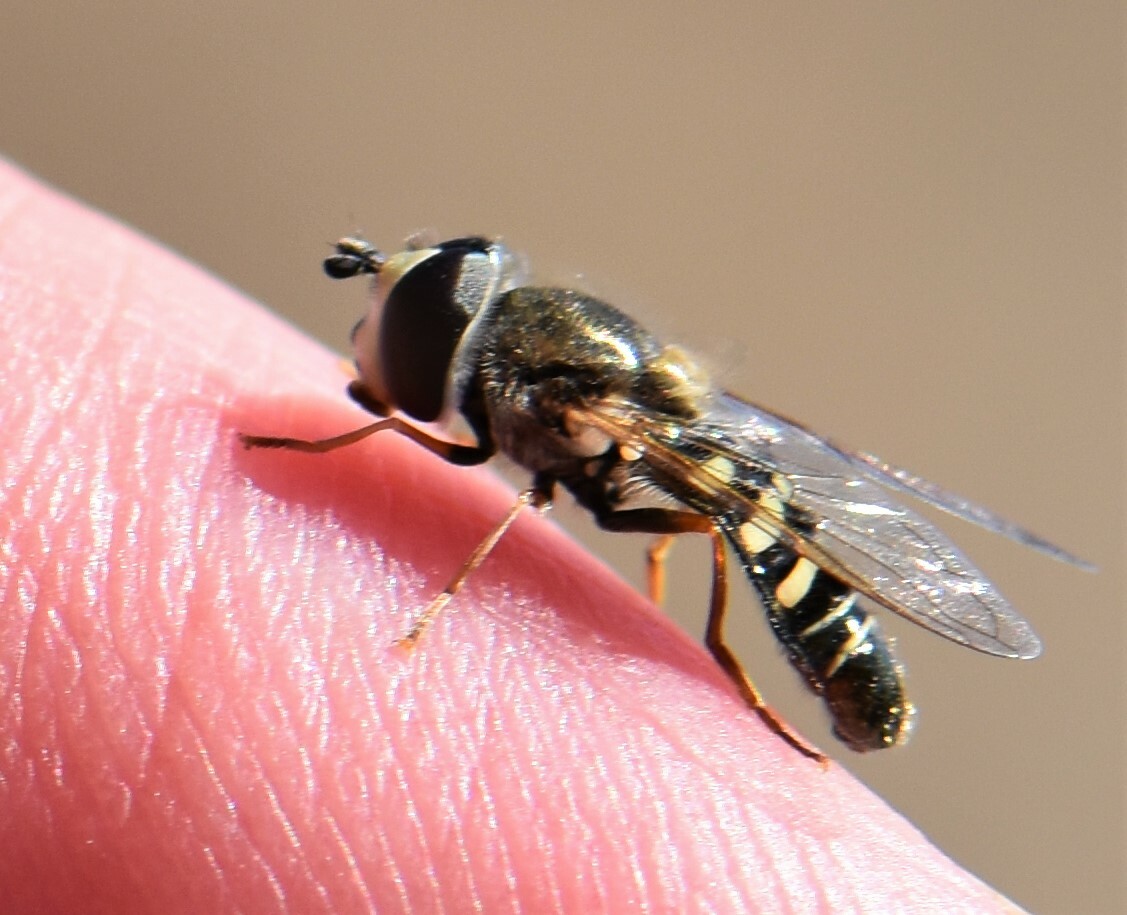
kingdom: Animalia
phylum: Arthropoda
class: Insecta
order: Diptera
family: Syrphidae
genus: Eupeodes
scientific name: Eupeodes volucris
